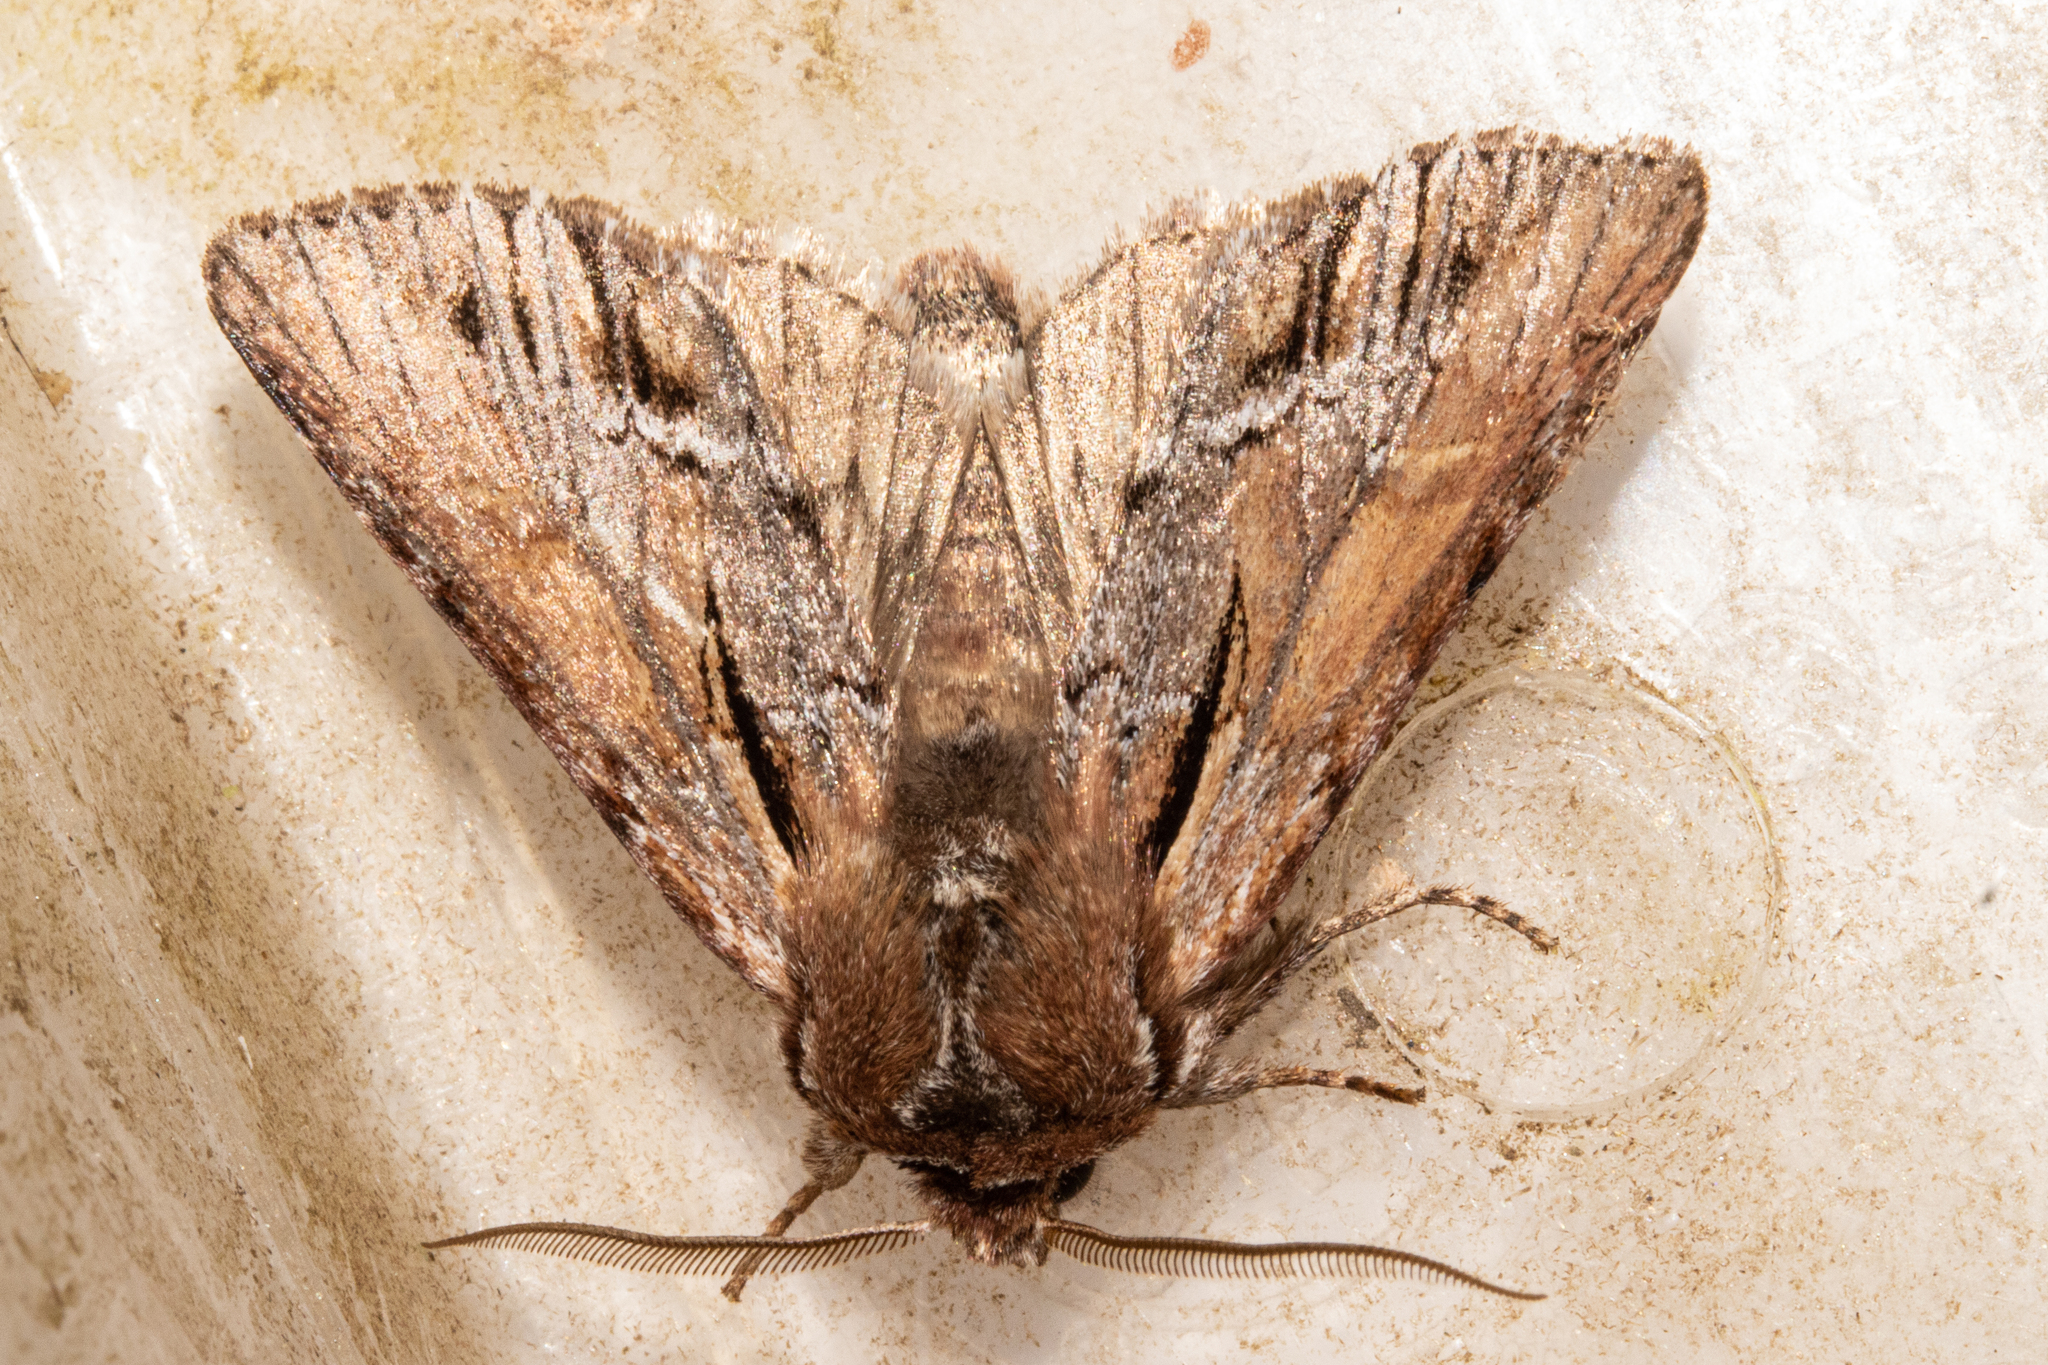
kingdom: Animalia
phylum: Arthropoda
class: Insecta
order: Lepidoptera
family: Noctuidae
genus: Ichneutica
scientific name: Ichneutica
